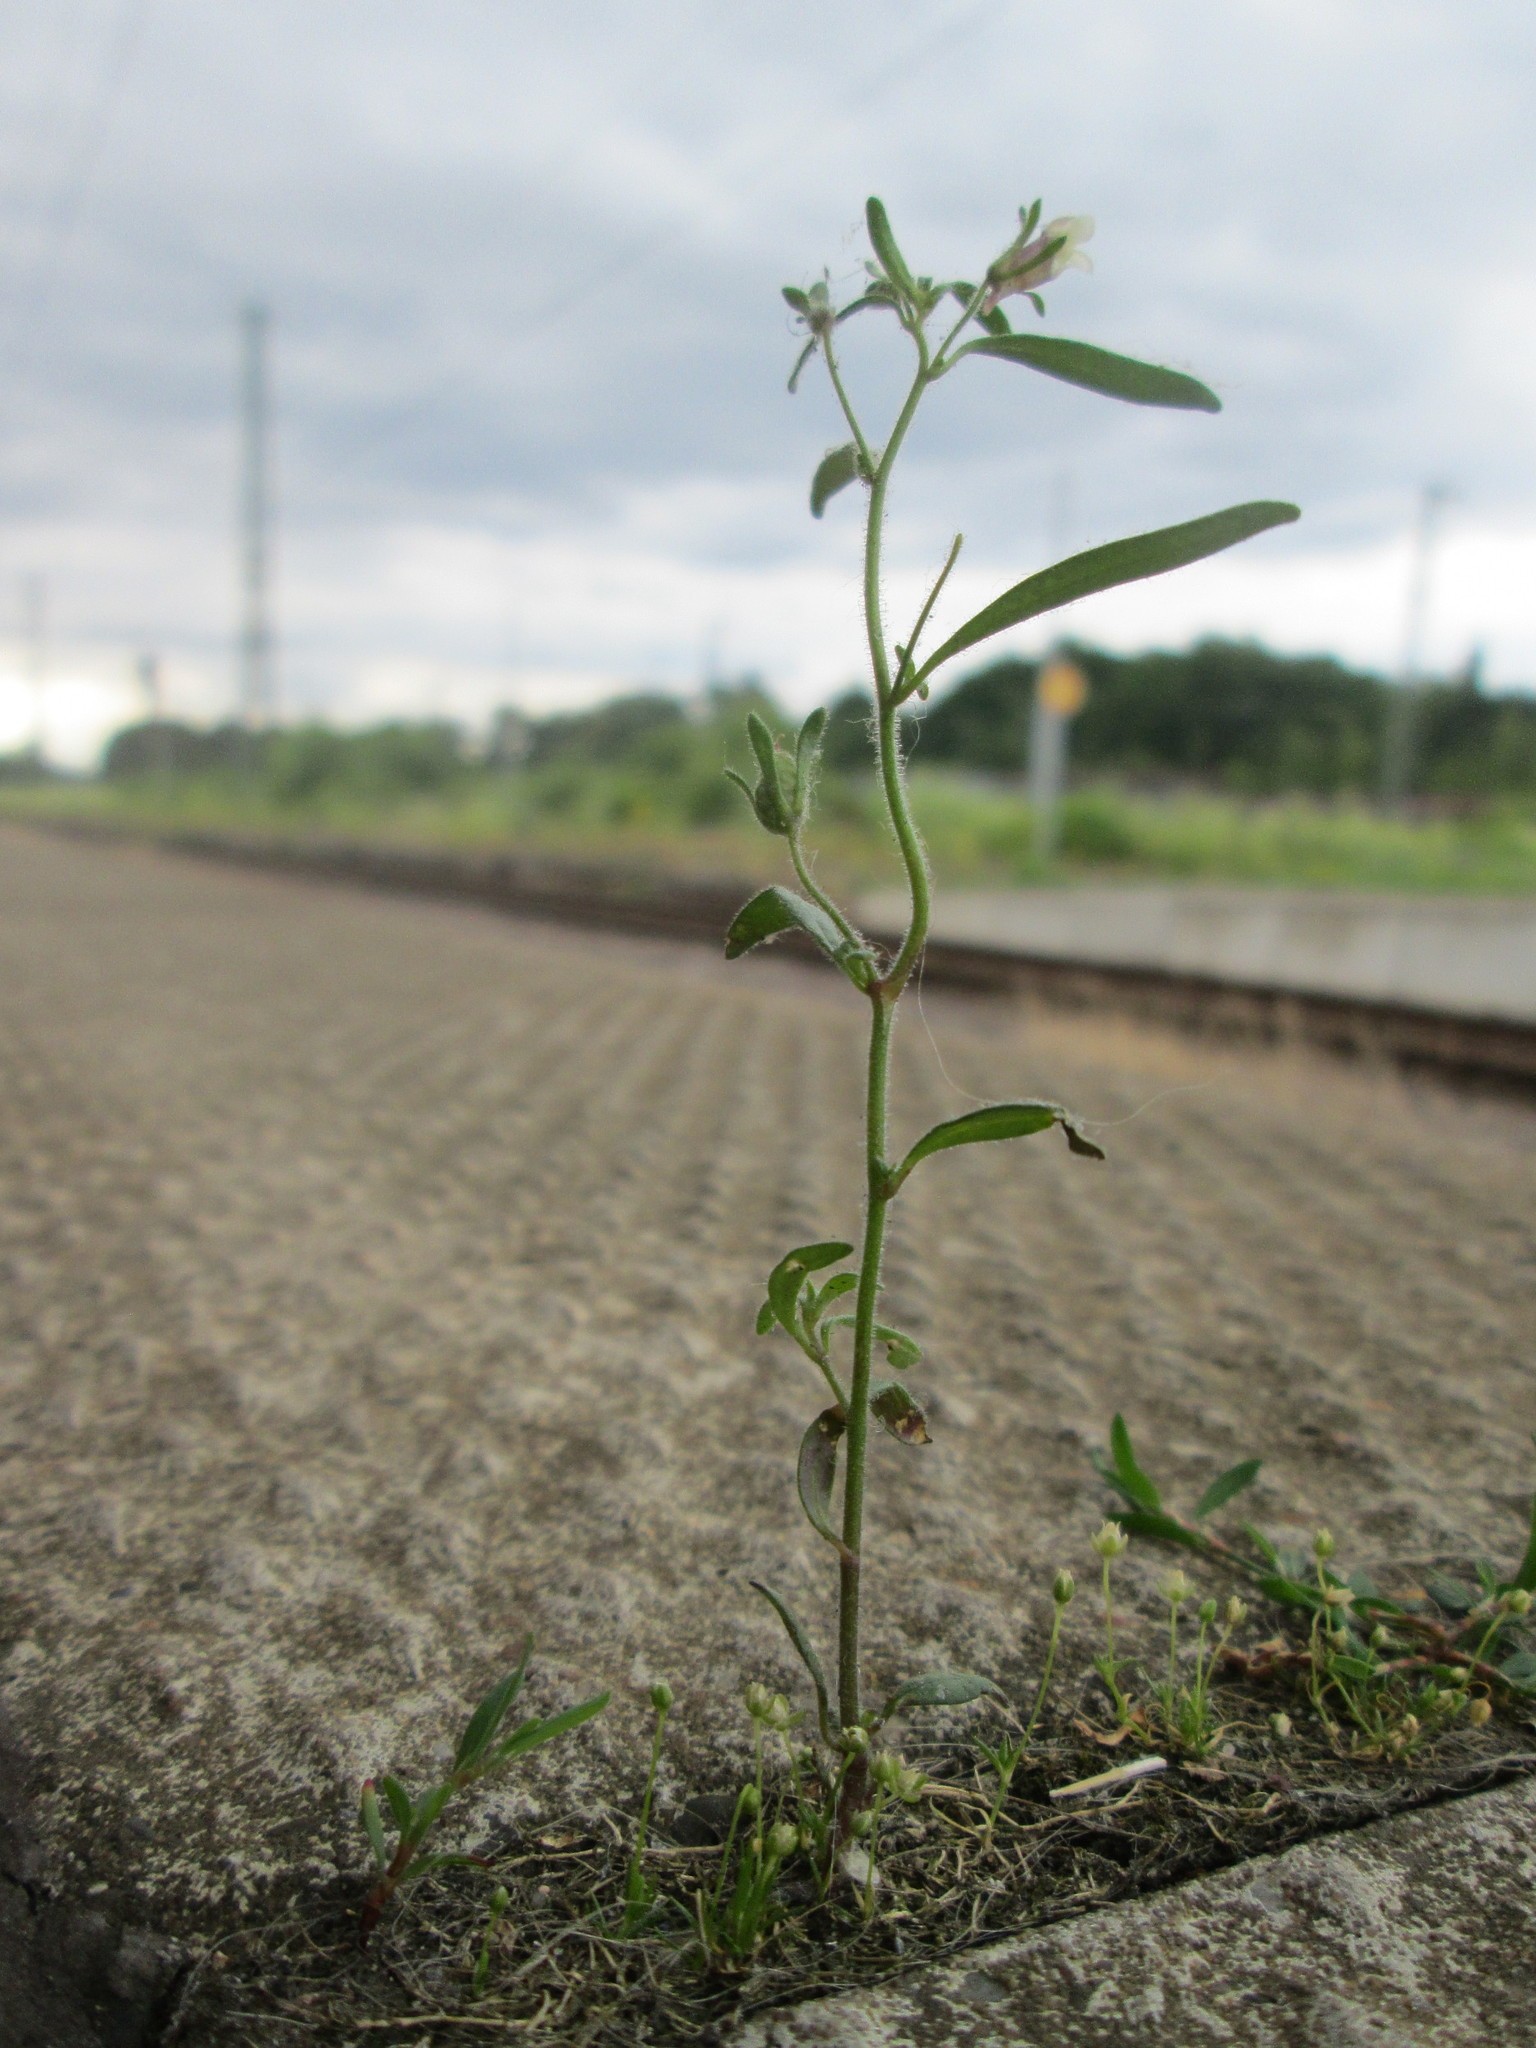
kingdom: Plantae
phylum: Tracheophyta
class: Magnoliopsida
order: Lamiales
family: Plantaginaceae
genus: Chaenorhinum
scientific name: Chaenorhinum minus
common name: Dwarf snapdragon
